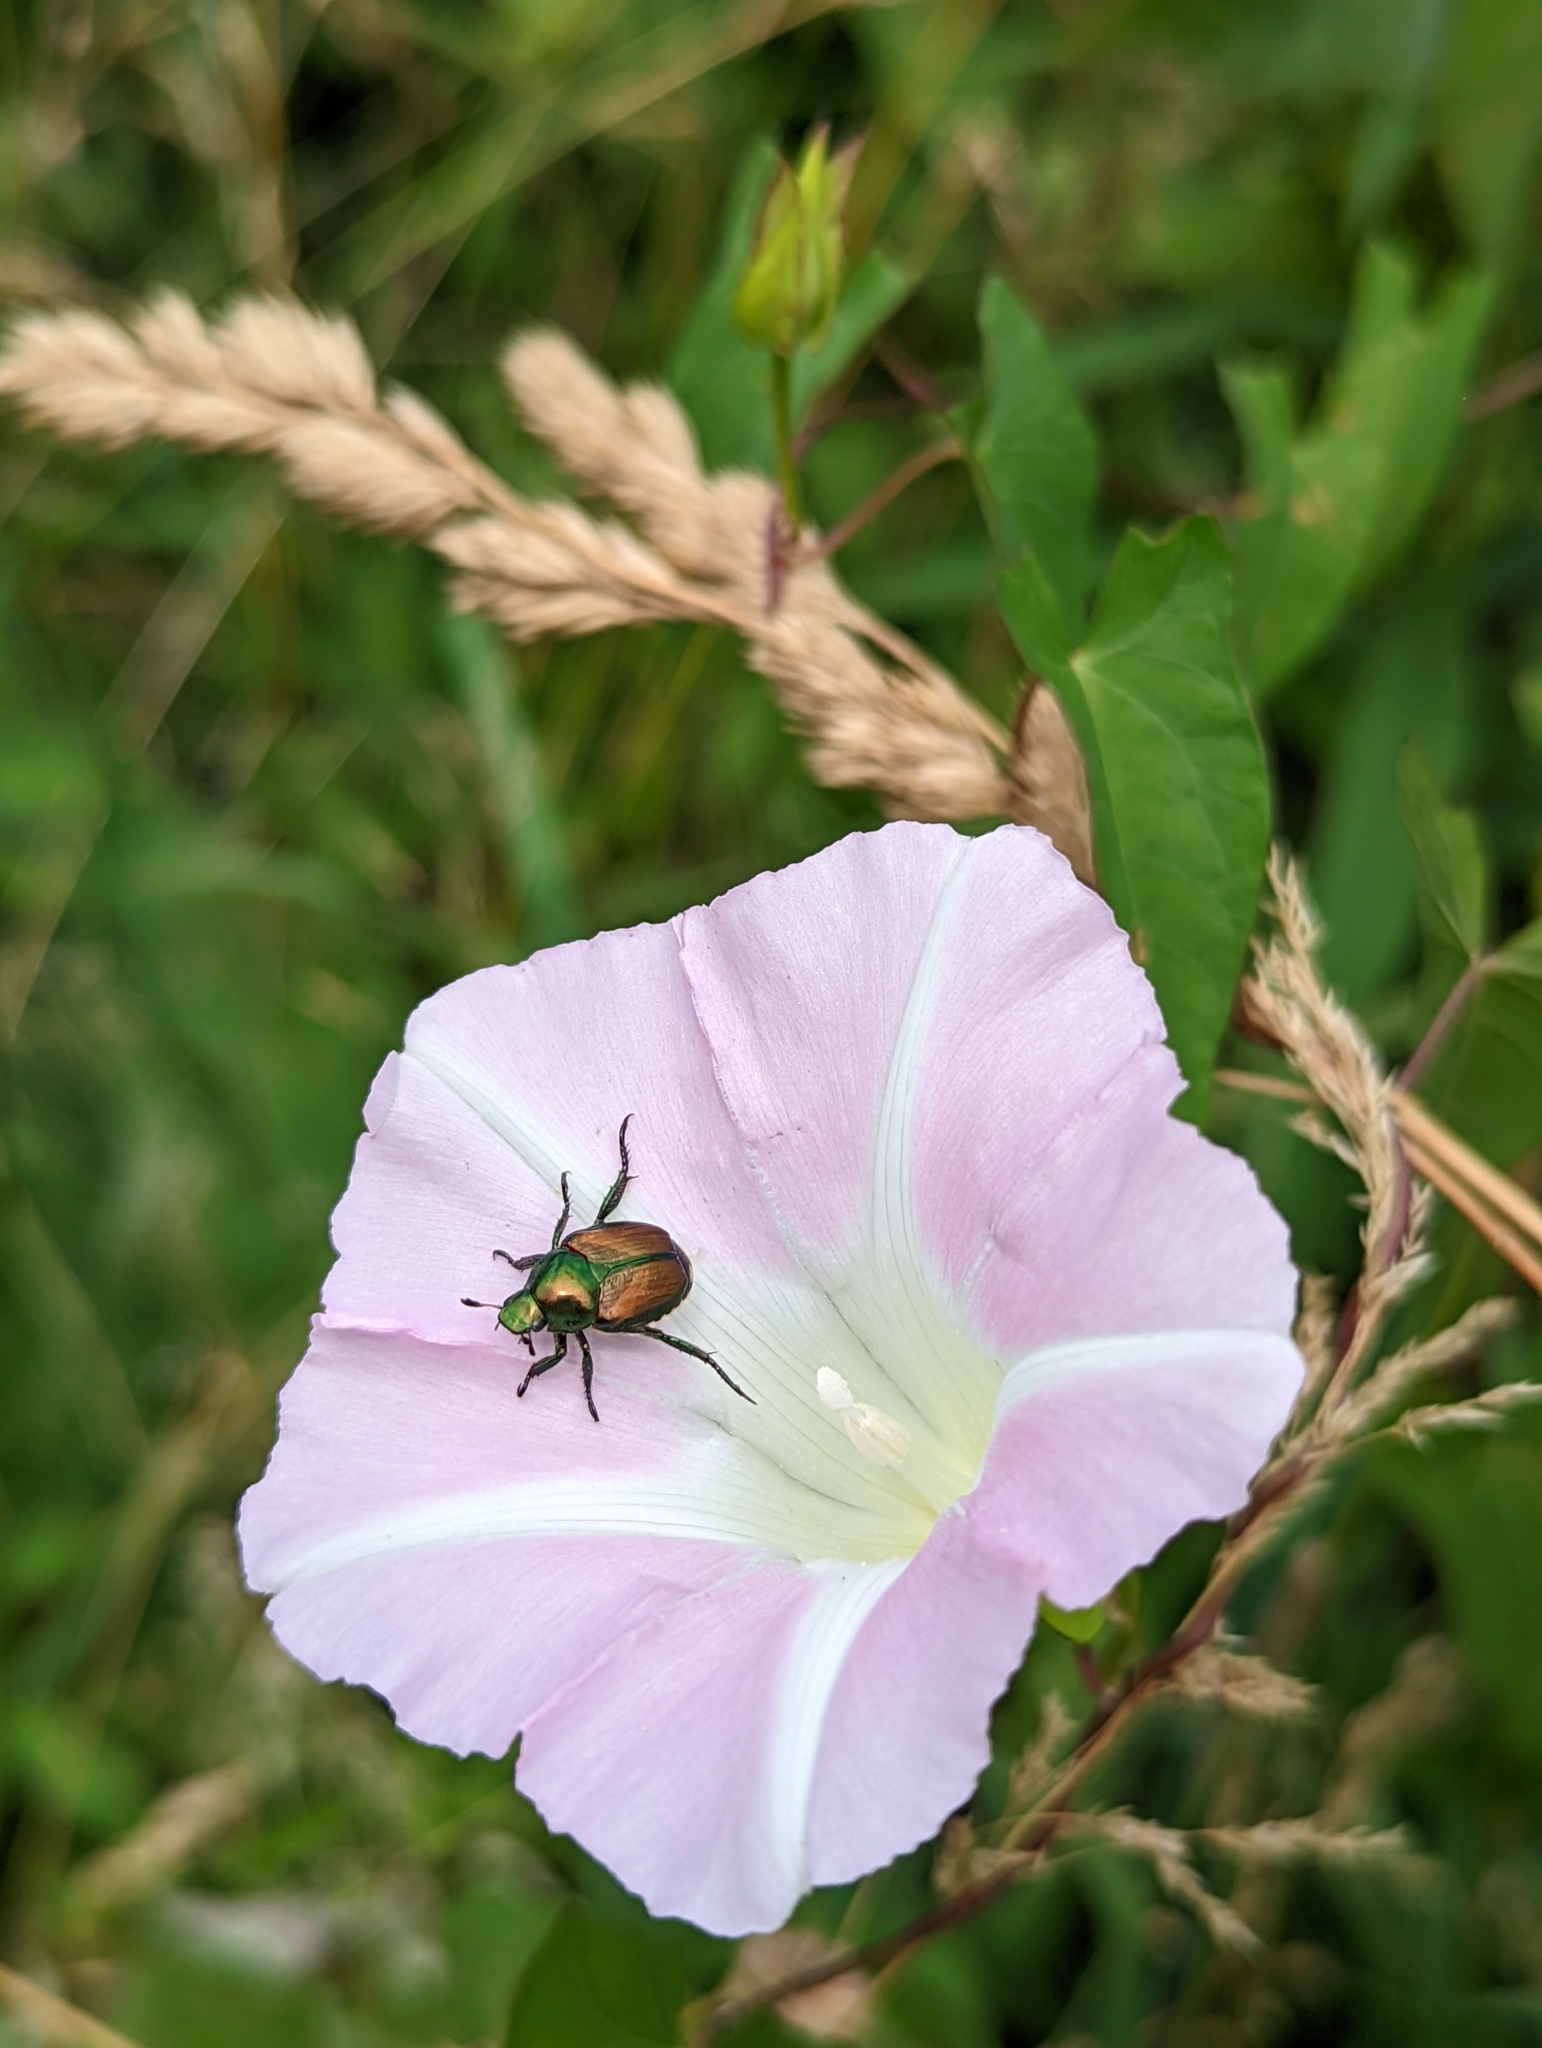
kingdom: Animalia
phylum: Arthropoda
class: Insecta
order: Coleoptera
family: Scarabaeidae
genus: Popillia
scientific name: Popillia japonica
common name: Japanese beetle
